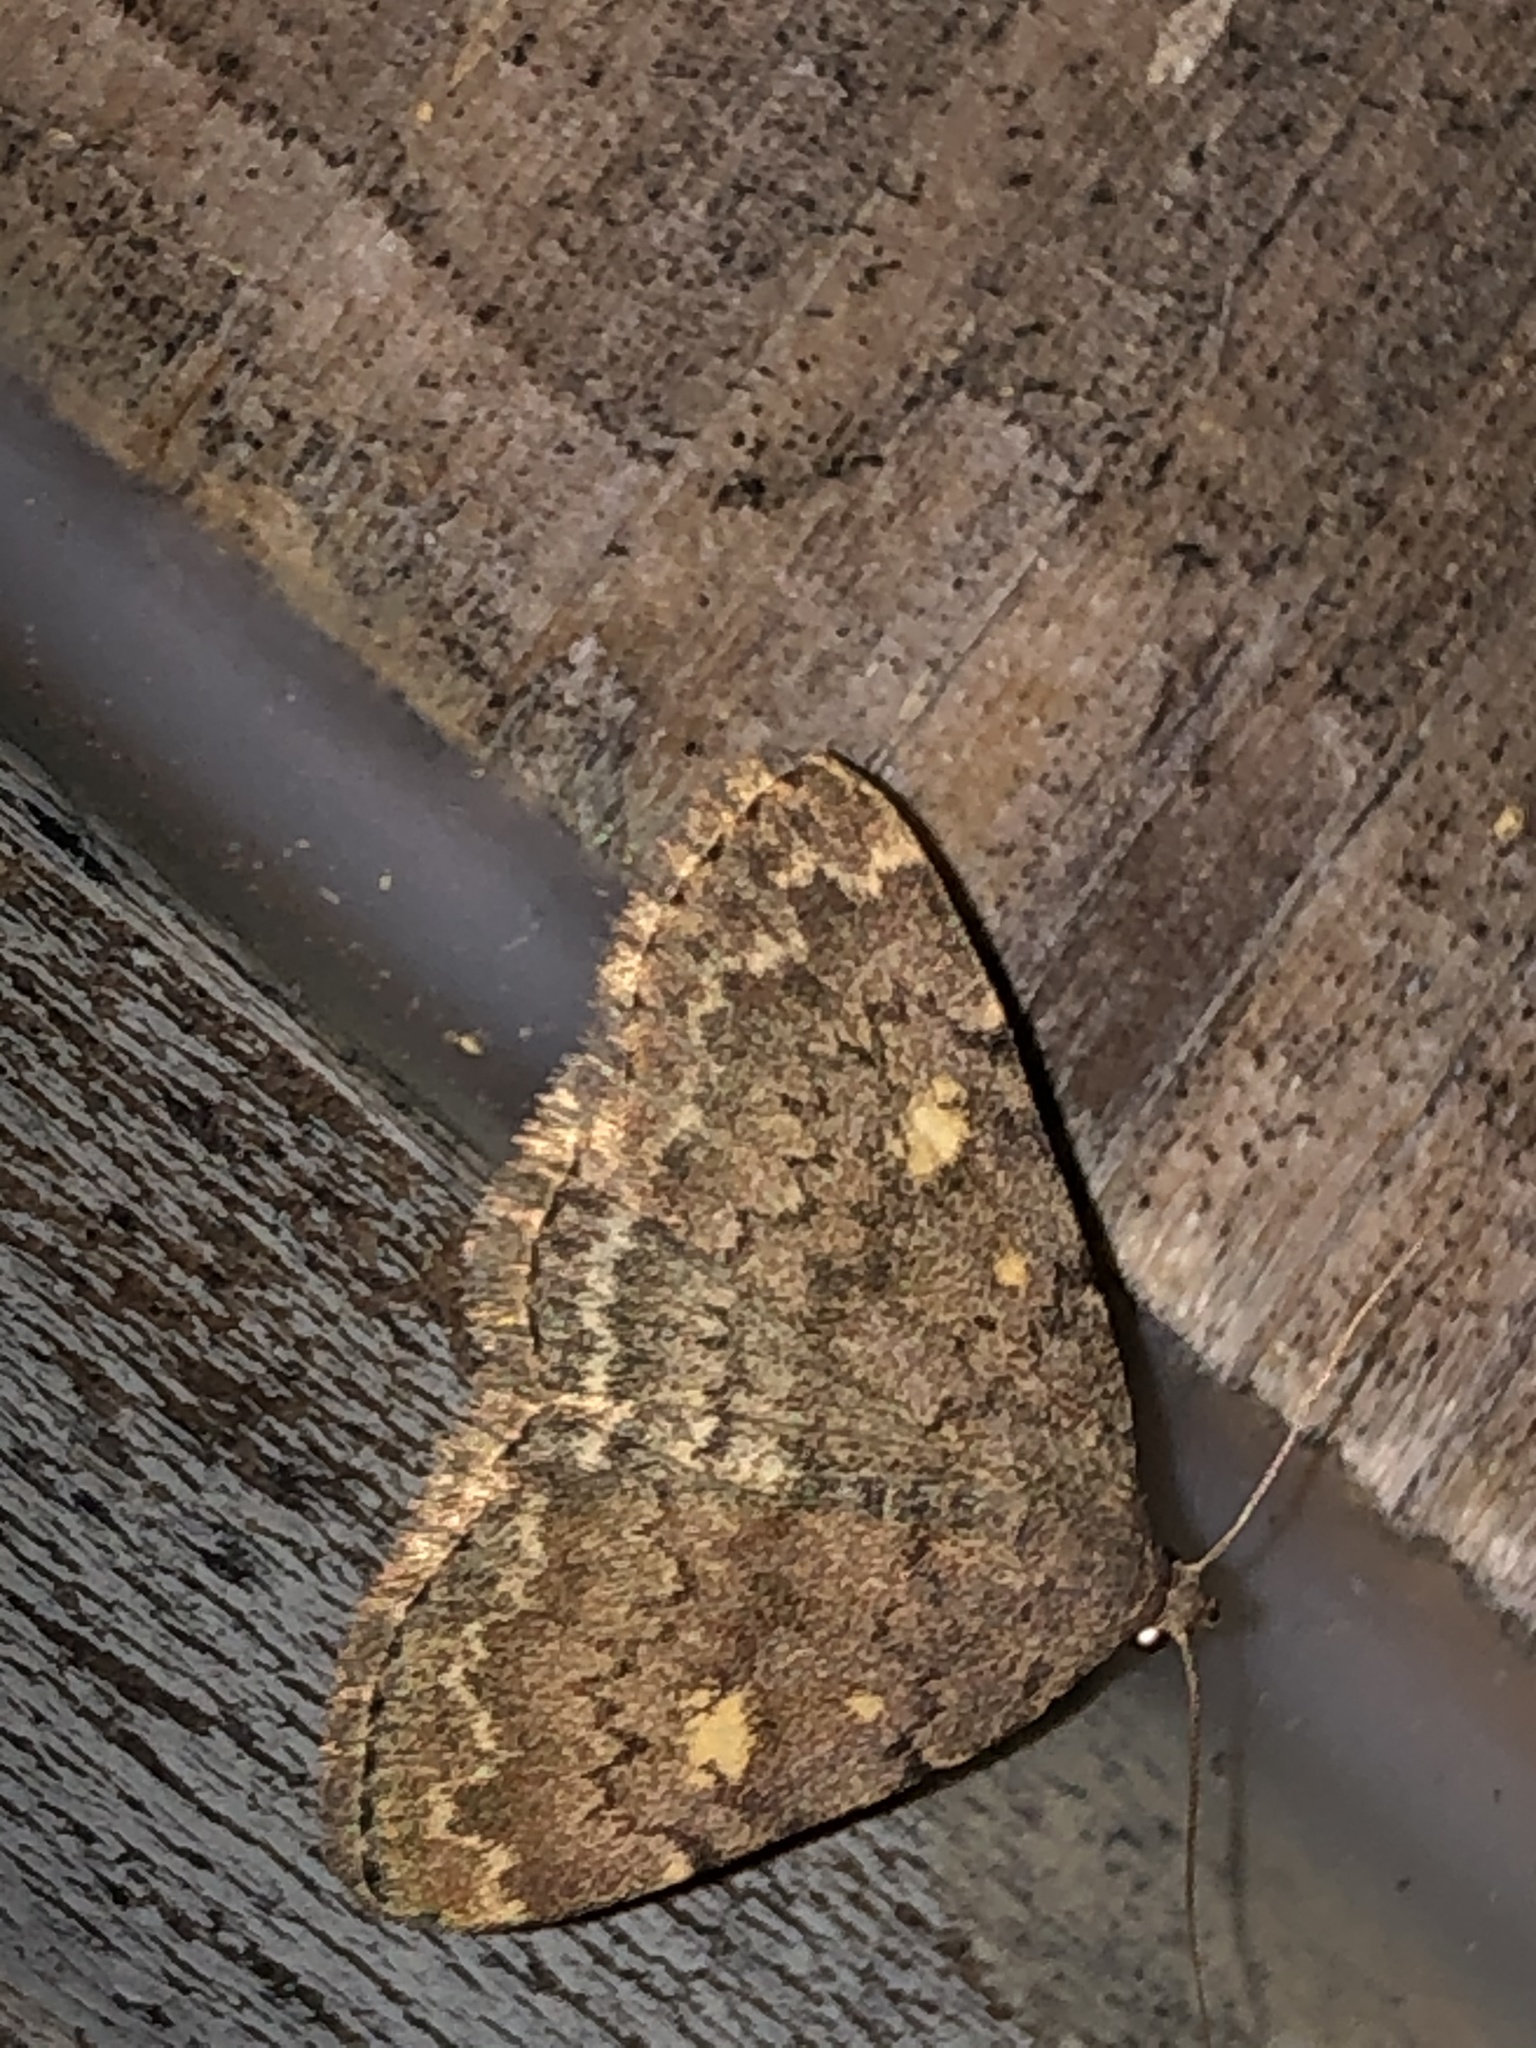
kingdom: Animalia
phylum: Arthropoda
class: Insecta
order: Lepidoptera
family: Erebidae
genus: Idia
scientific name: Idia aemula
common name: Common idia moth
